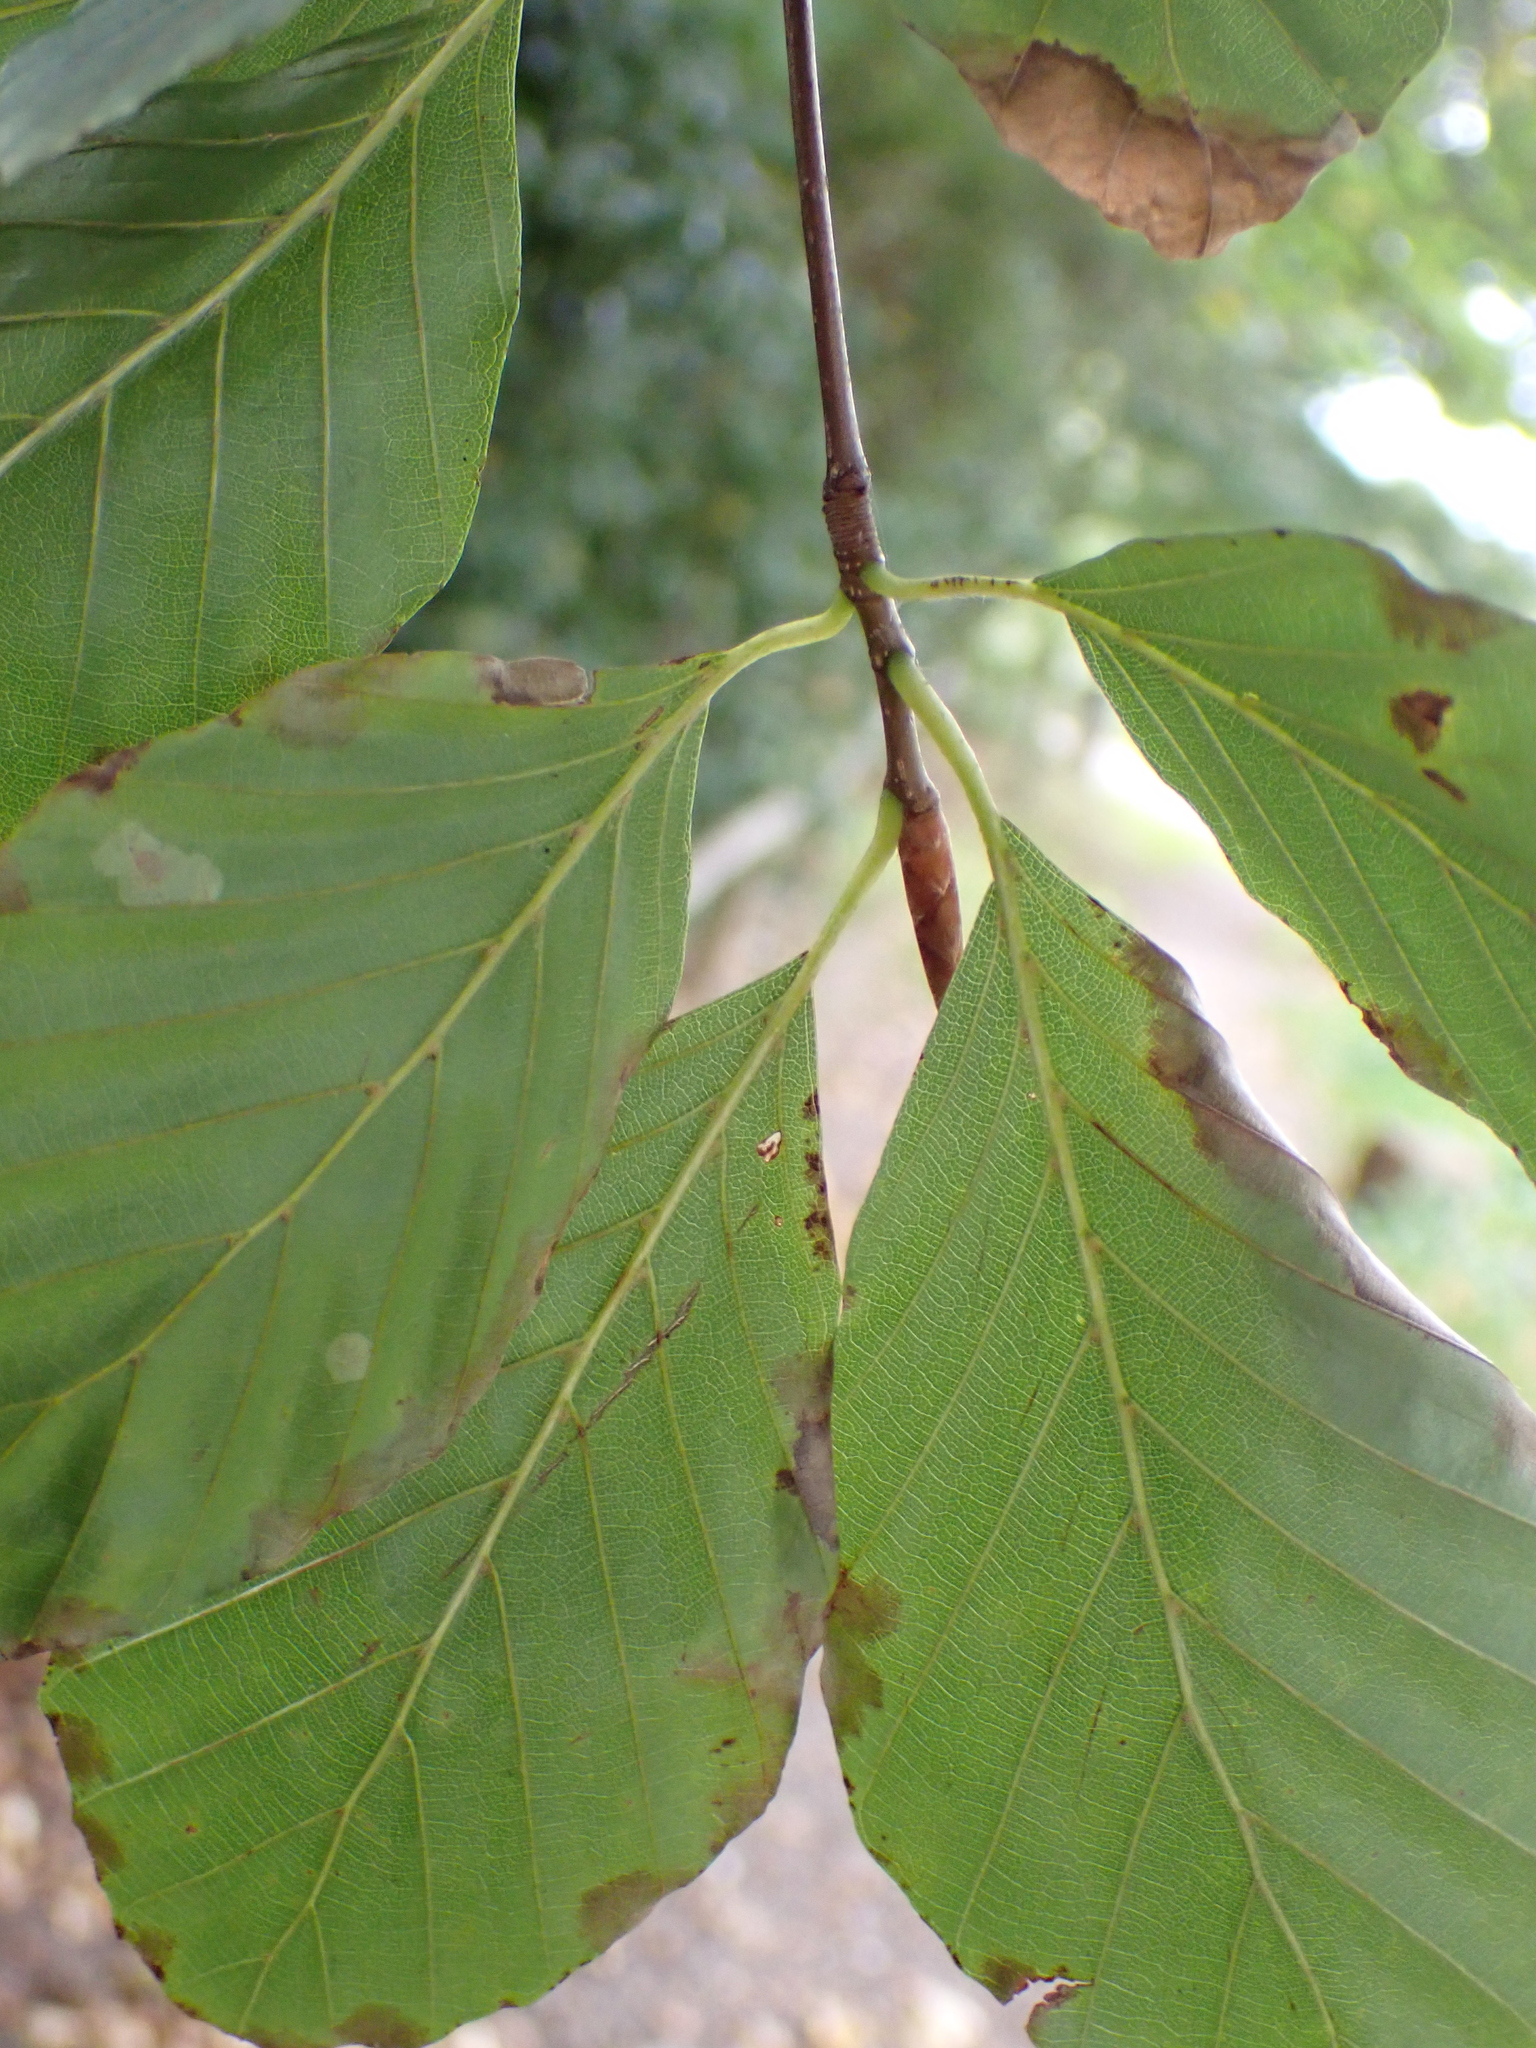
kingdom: Plantae
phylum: Tracheophyta
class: Magnoliopsida
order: Fagales
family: Fagaceae
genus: Fagus
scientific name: Fagus sylvatica
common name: Beech
